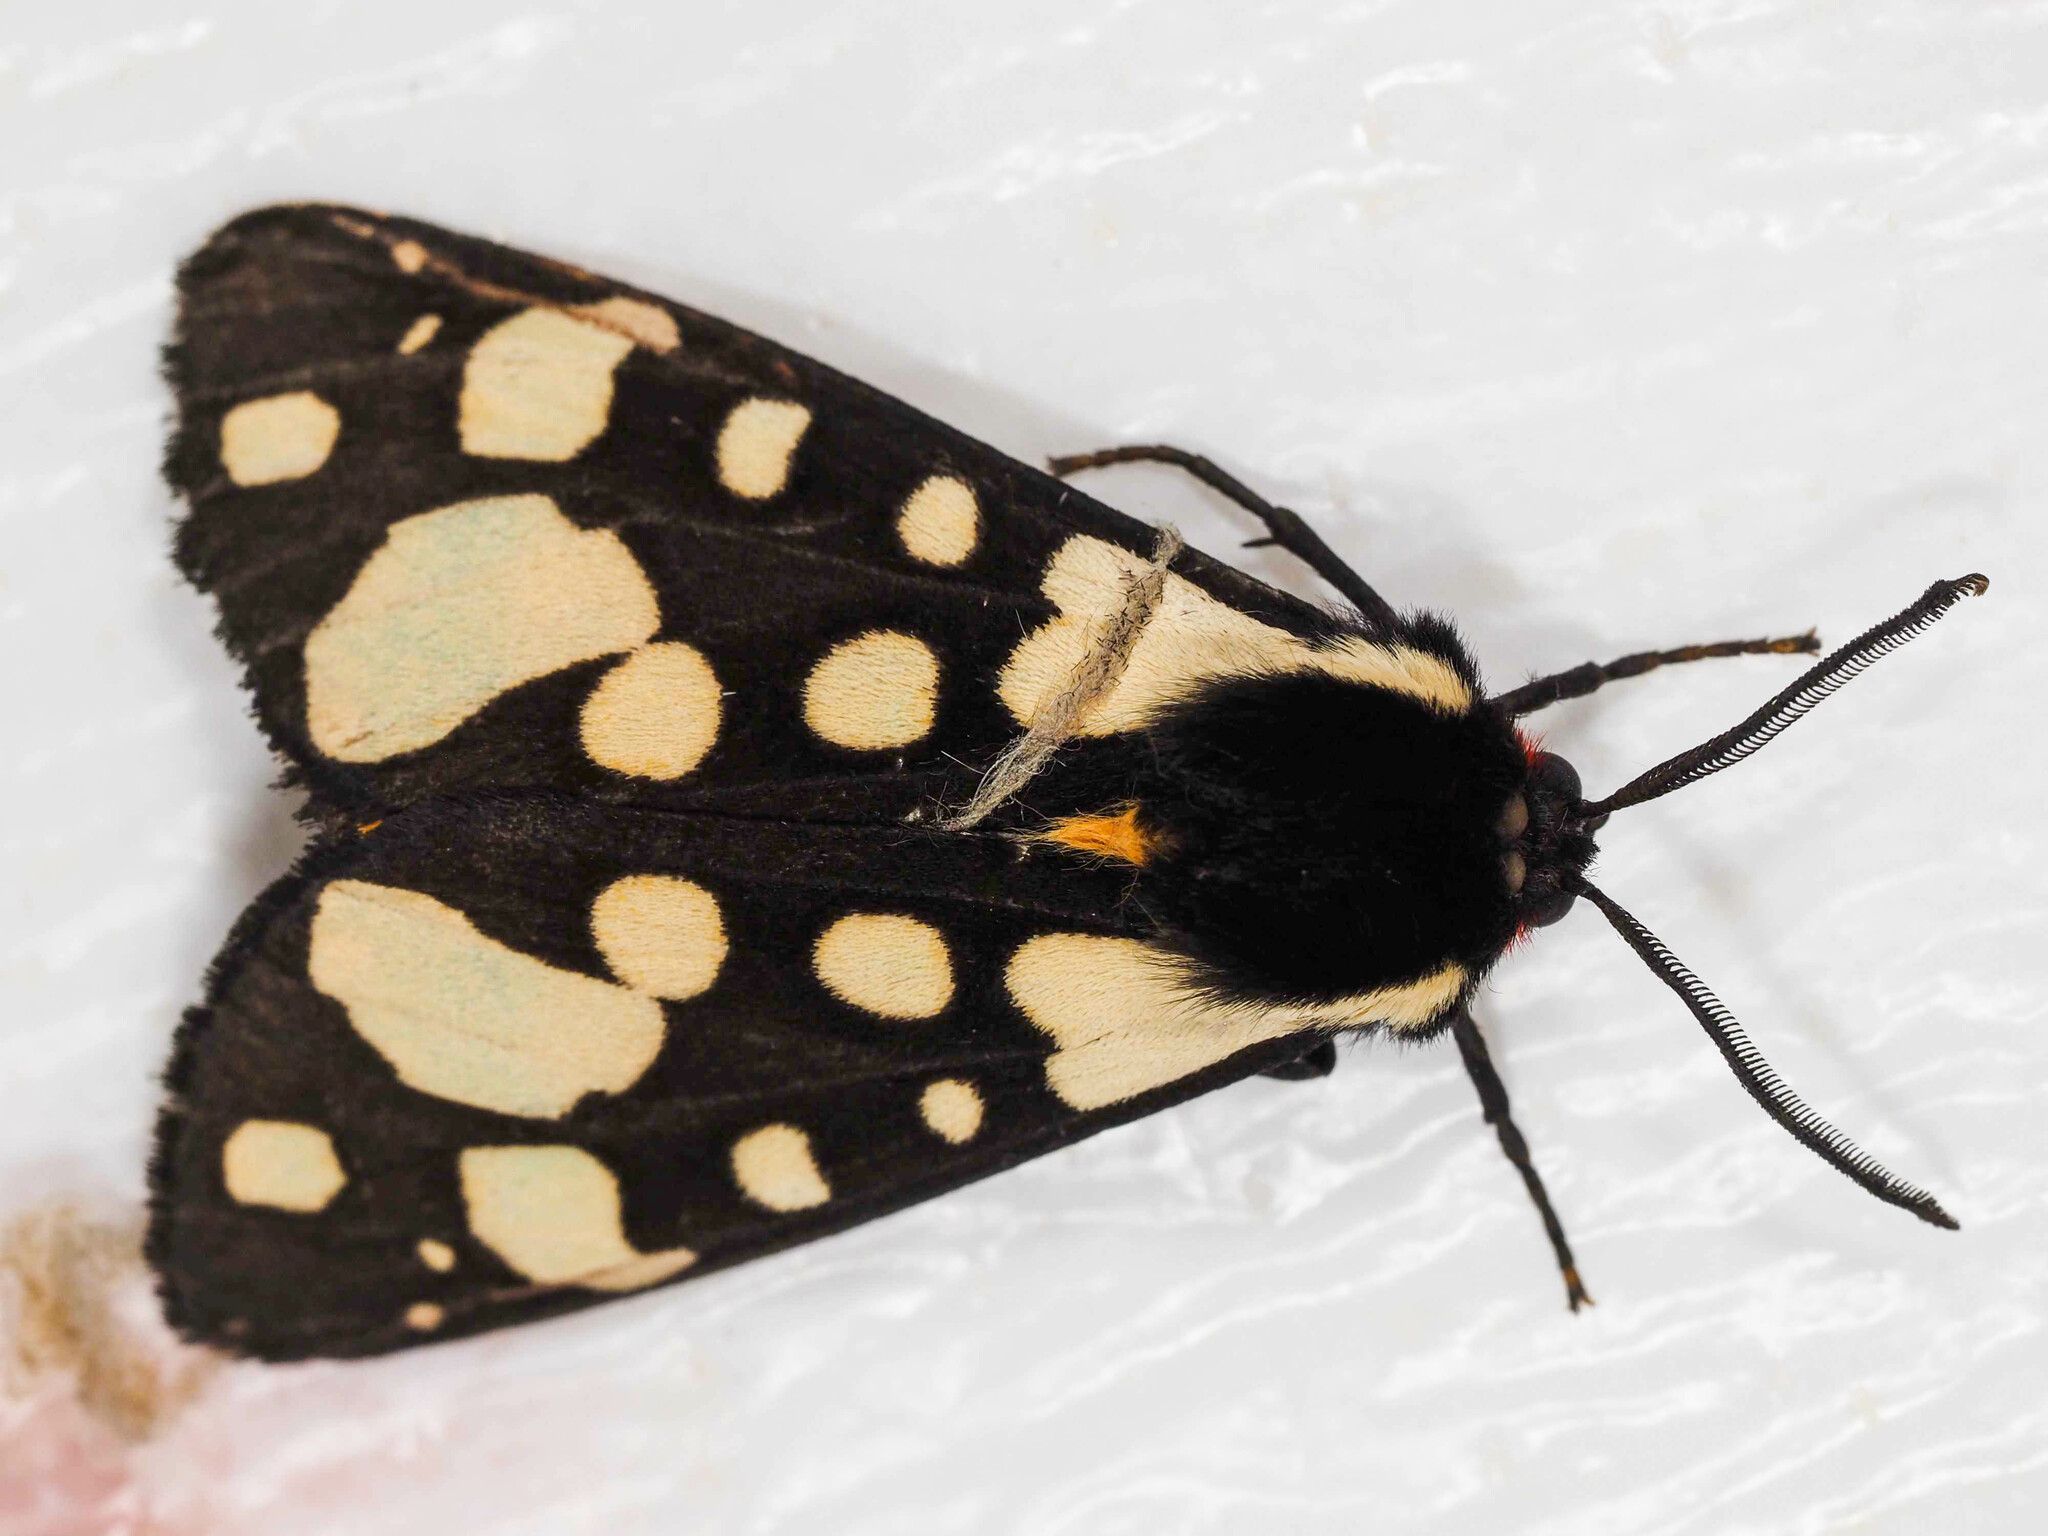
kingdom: Animalia
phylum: Arthropoda
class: Insecta
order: Lepidoptera
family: Erebidae
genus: Epicallia
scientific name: Epicallia villica
